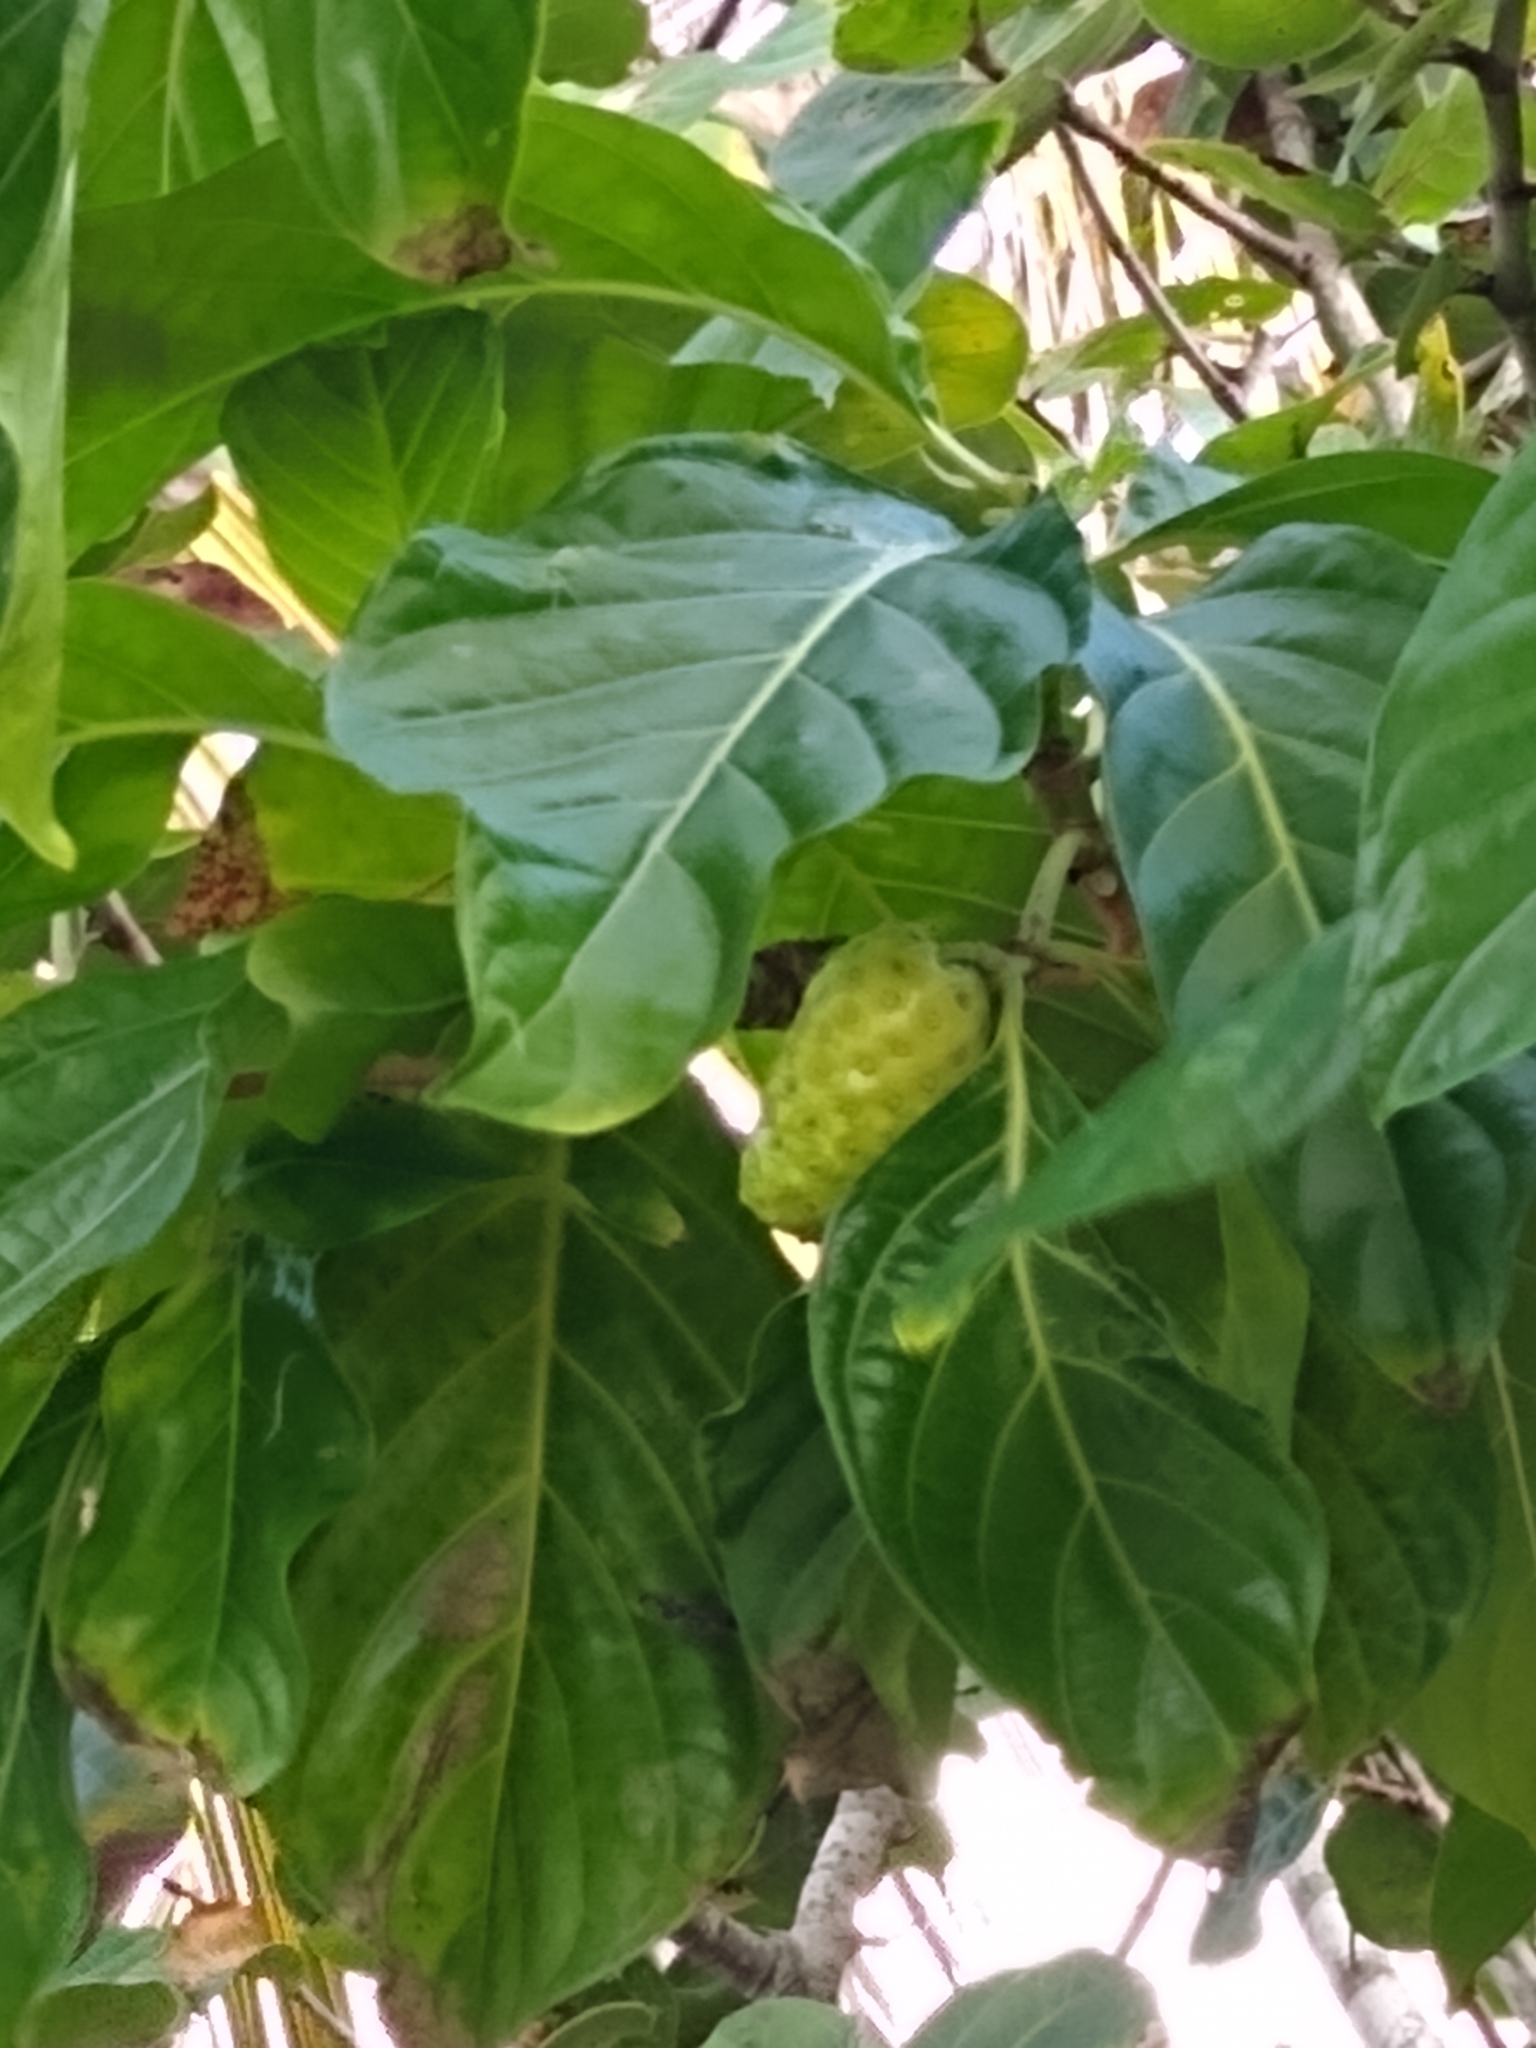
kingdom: Plantae
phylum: Tracheophyta
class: Magnoliopsida
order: Gentianales
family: Rubiaceae
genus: Morinda
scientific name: Morinda citrifolia
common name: Indian-mulberry
